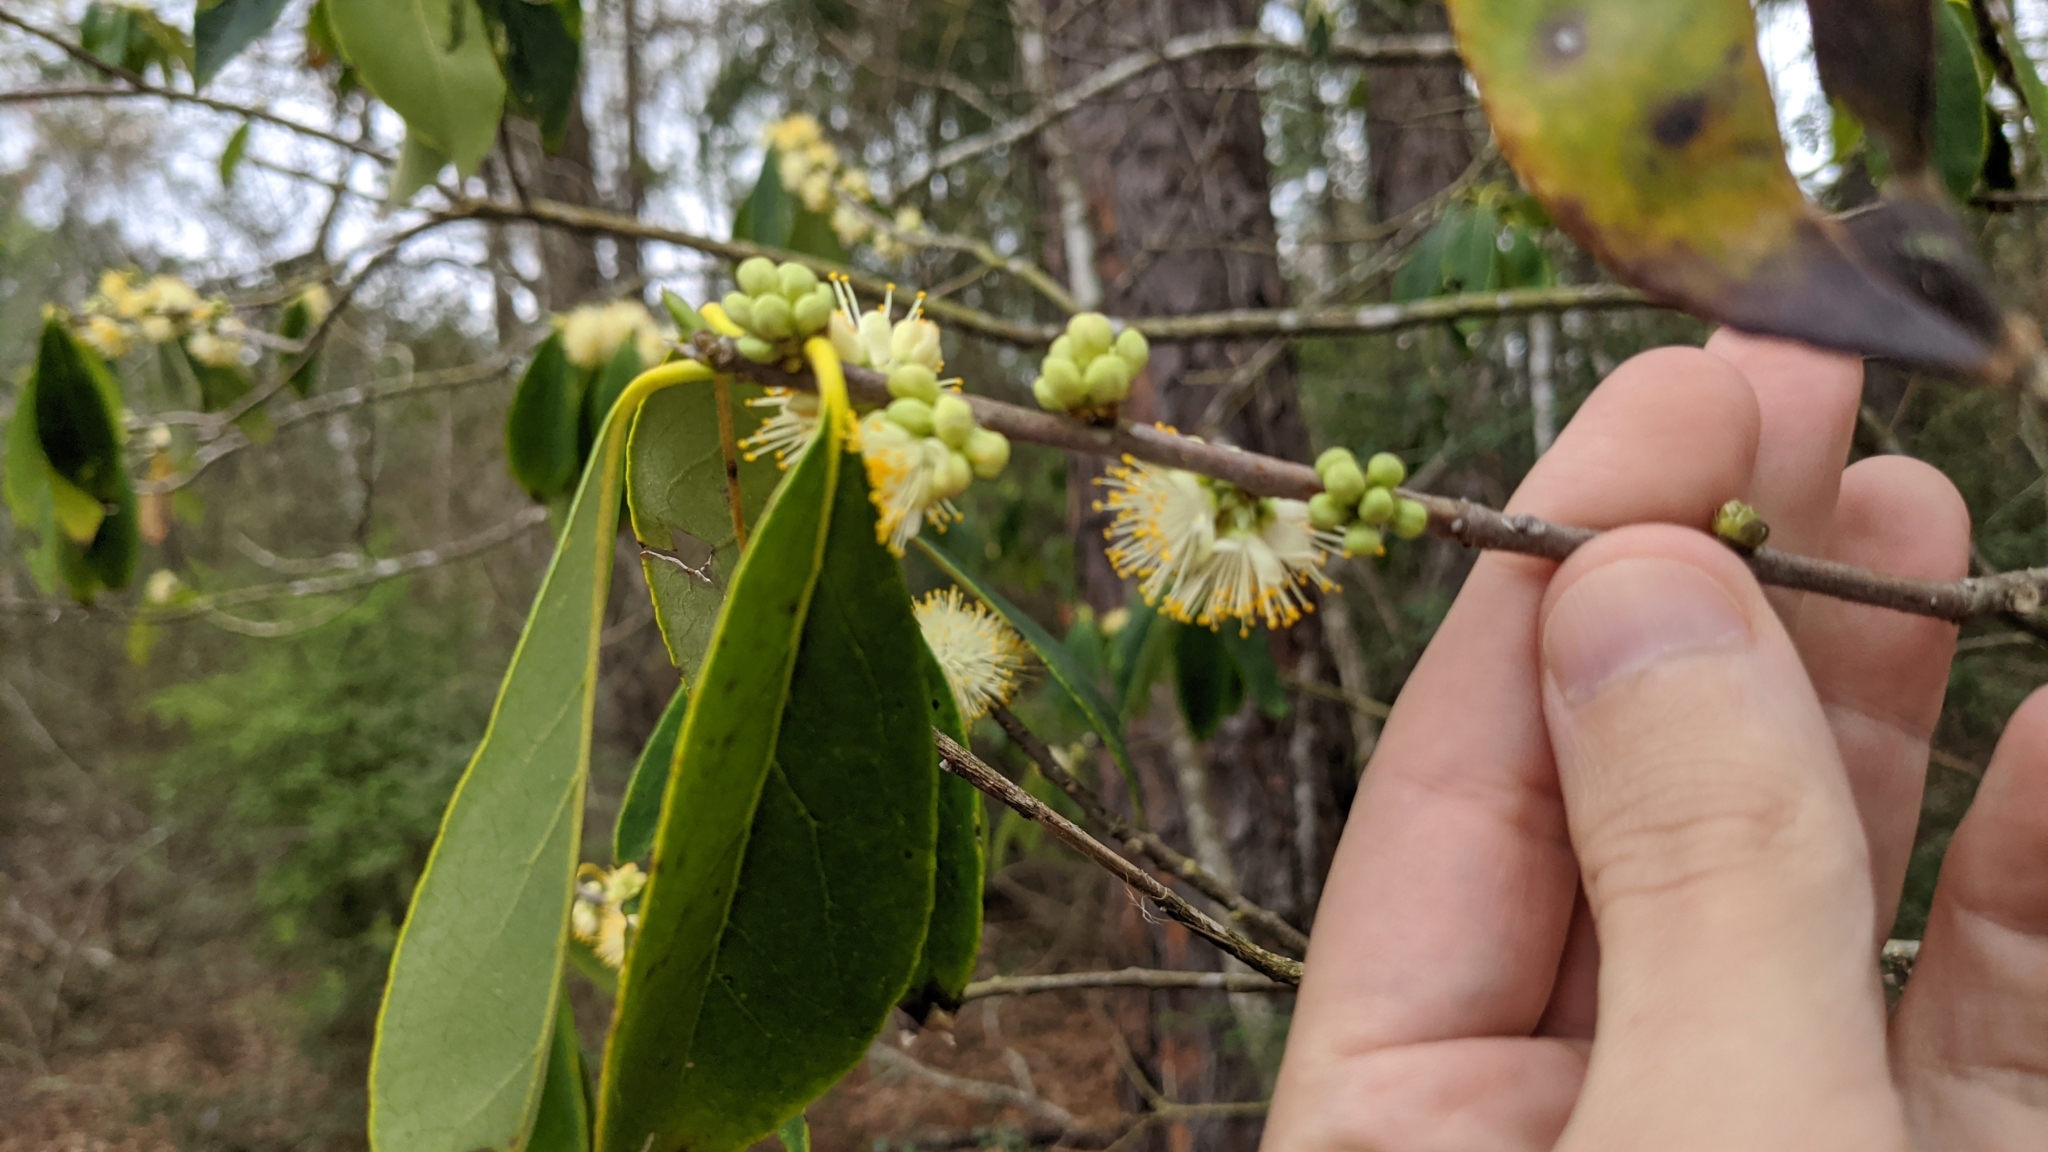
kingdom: Plantae
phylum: Tracheophyta
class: Magnoliopsida
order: Ericales
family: Symplocaceae
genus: Symplocos
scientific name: Symplocos tinctoria
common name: Horse-sugar
